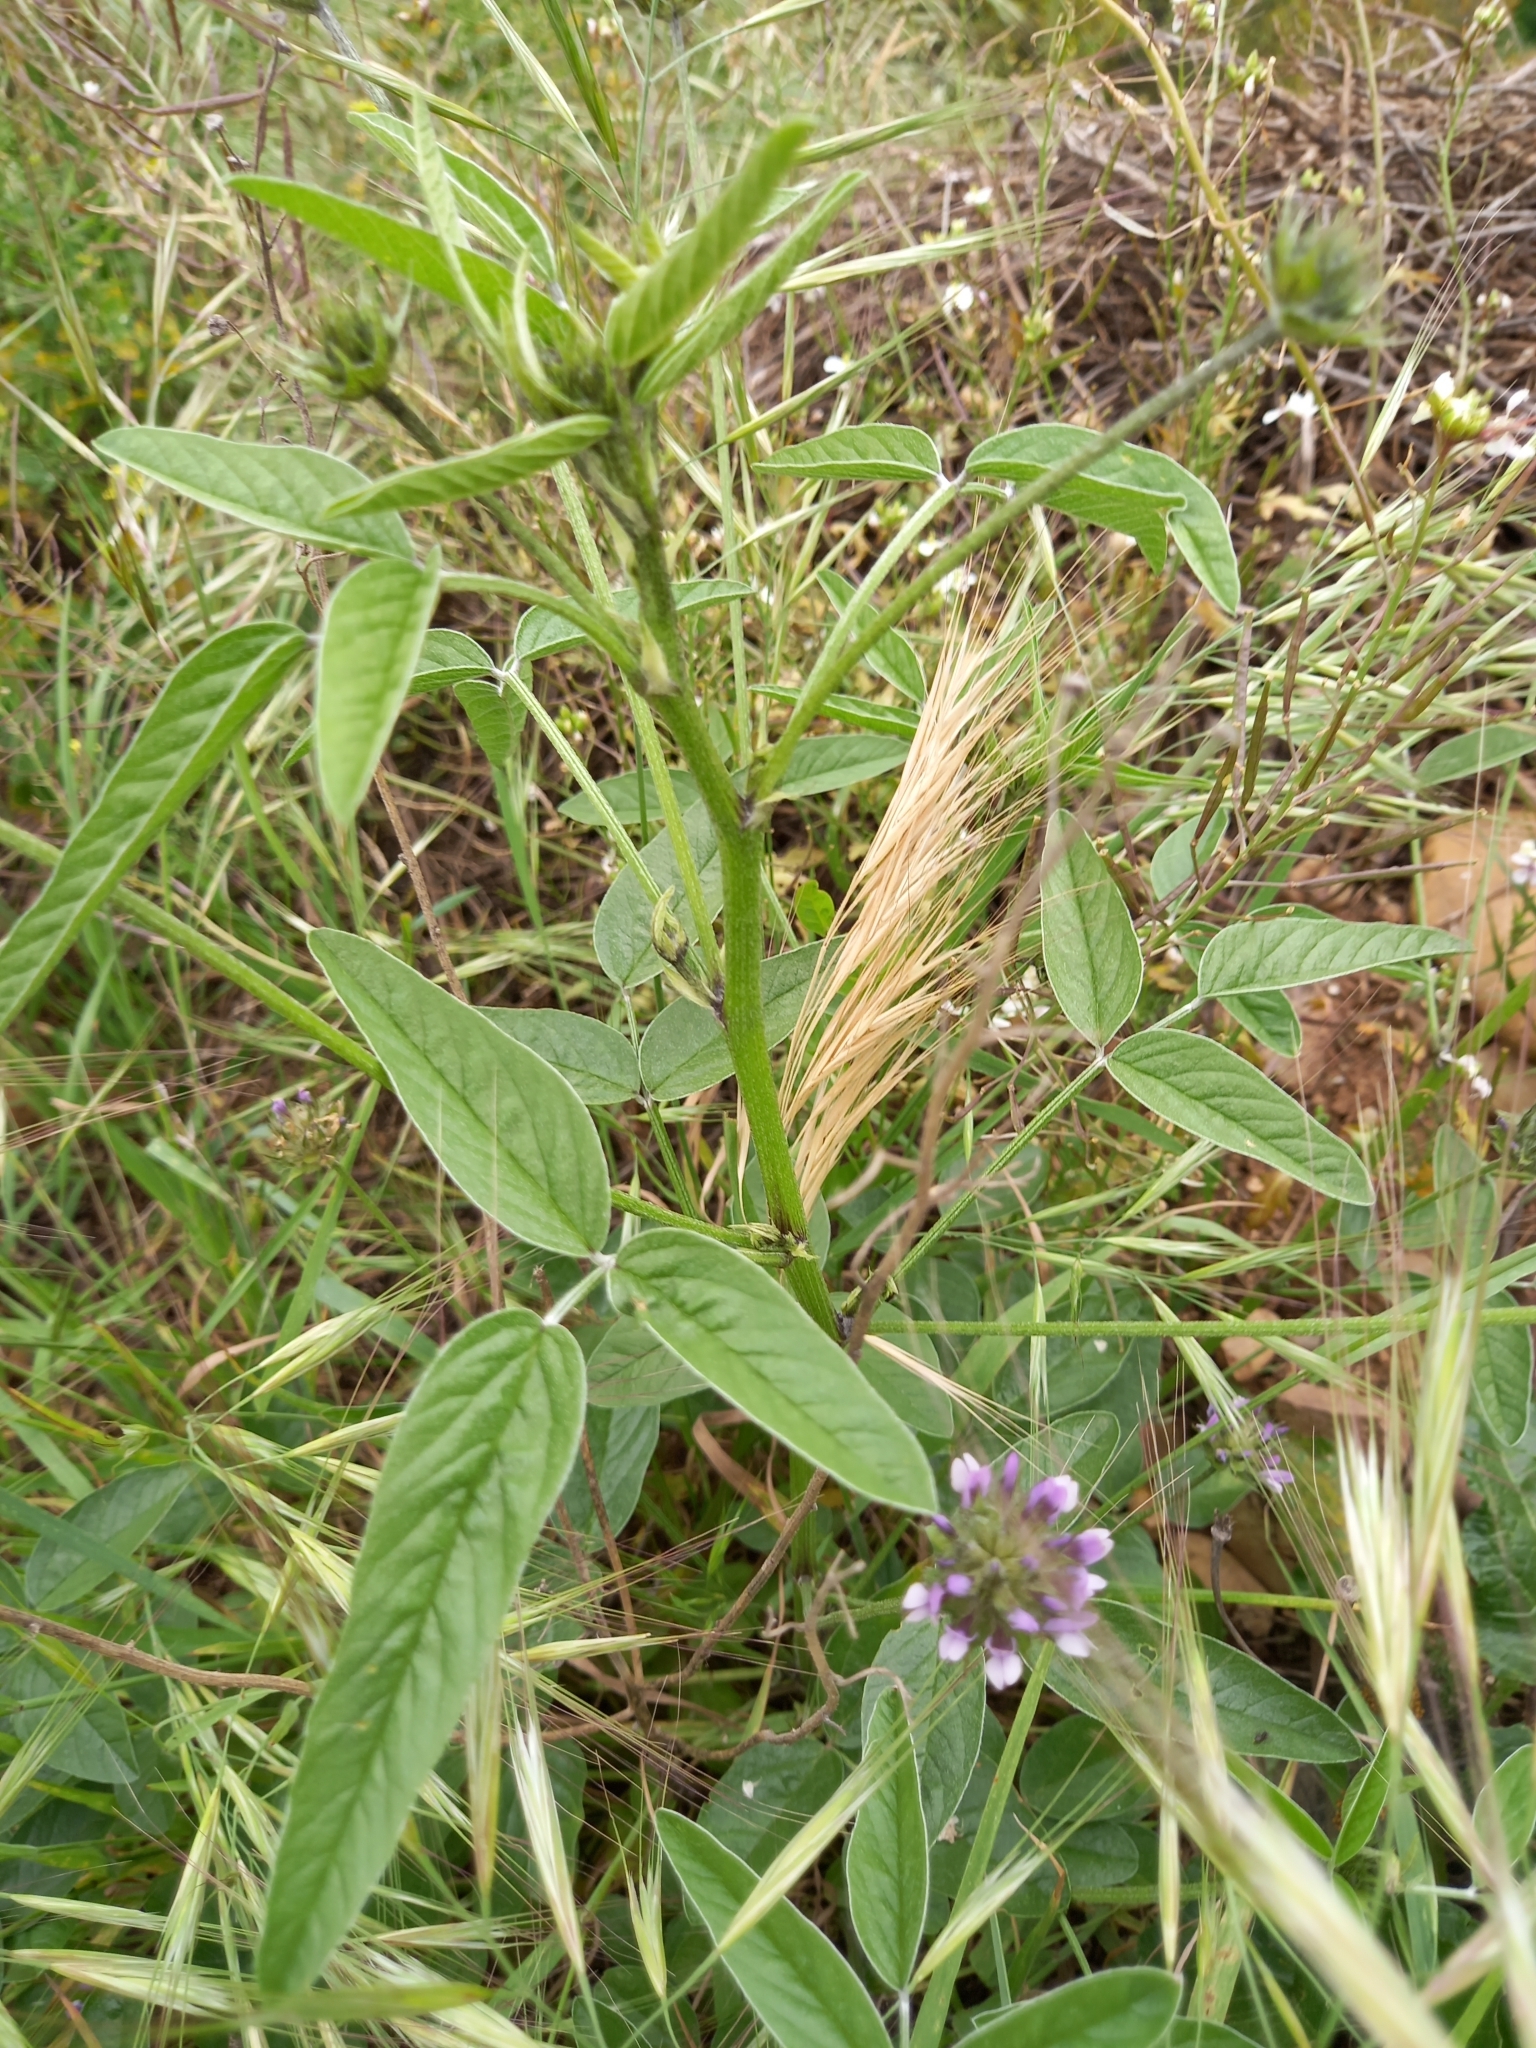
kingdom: Plantae
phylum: Tracheophyta
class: Magnoliopsida
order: Fabales
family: Fabaceae
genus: Bituminaria
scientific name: Bituminaria bituminosa
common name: Arabian pea
